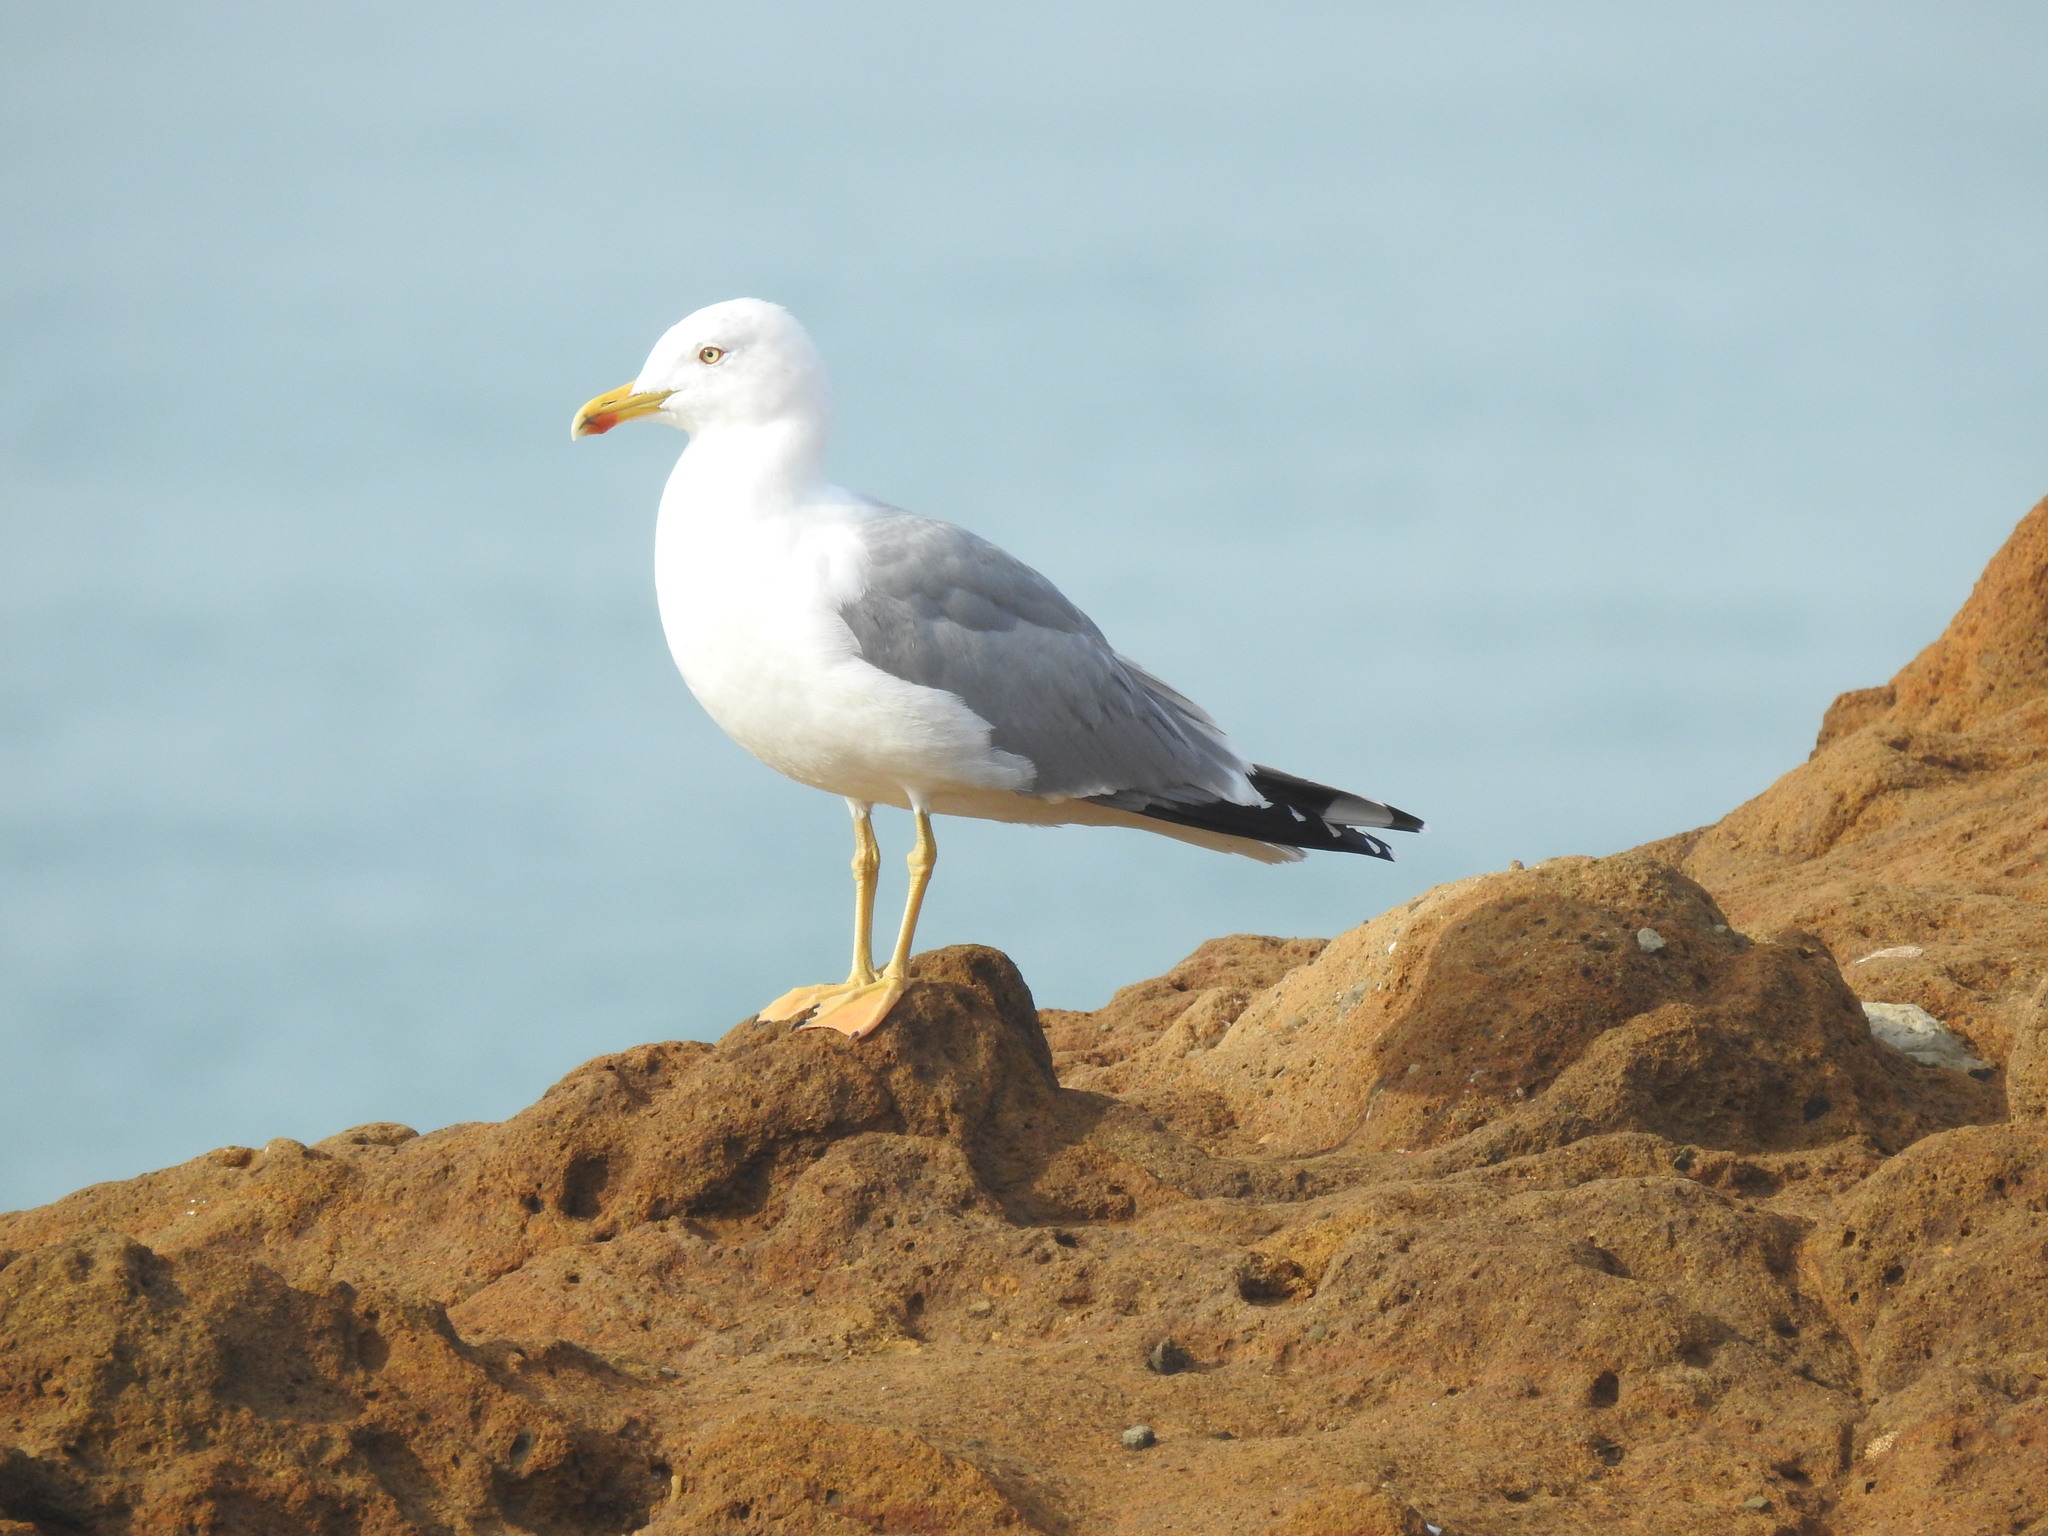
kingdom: Animalia
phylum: Chordata
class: Aves
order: Charadriiformes
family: Laridae
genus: Larus
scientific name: Larus michahellis
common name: Yellow-legged gull
